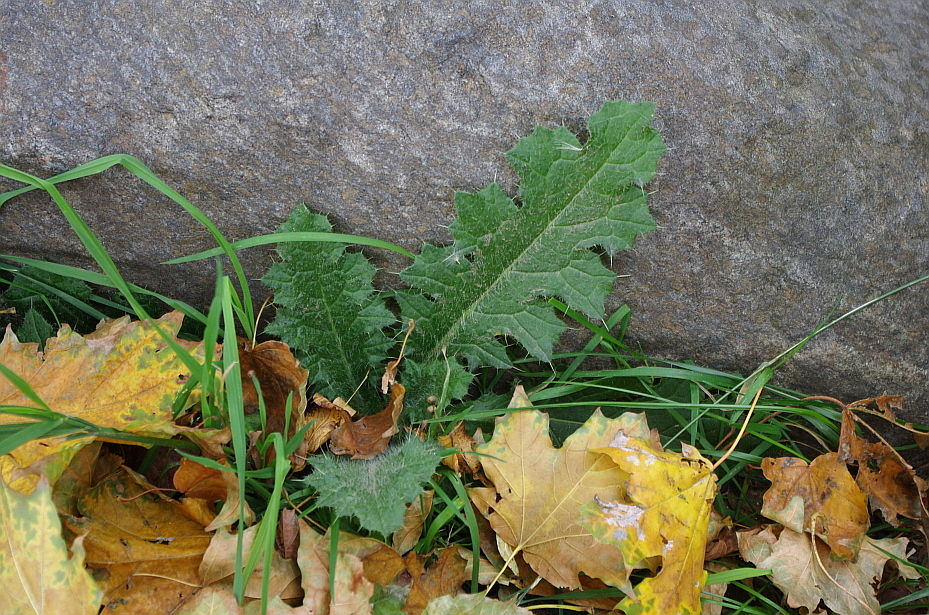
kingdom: Plantae
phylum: Tracheophyta
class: Magnoliopsida
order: Asterales
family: Asteraceae
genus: Cirsium
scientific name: Cirsium vulgare
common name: Bull thistle
